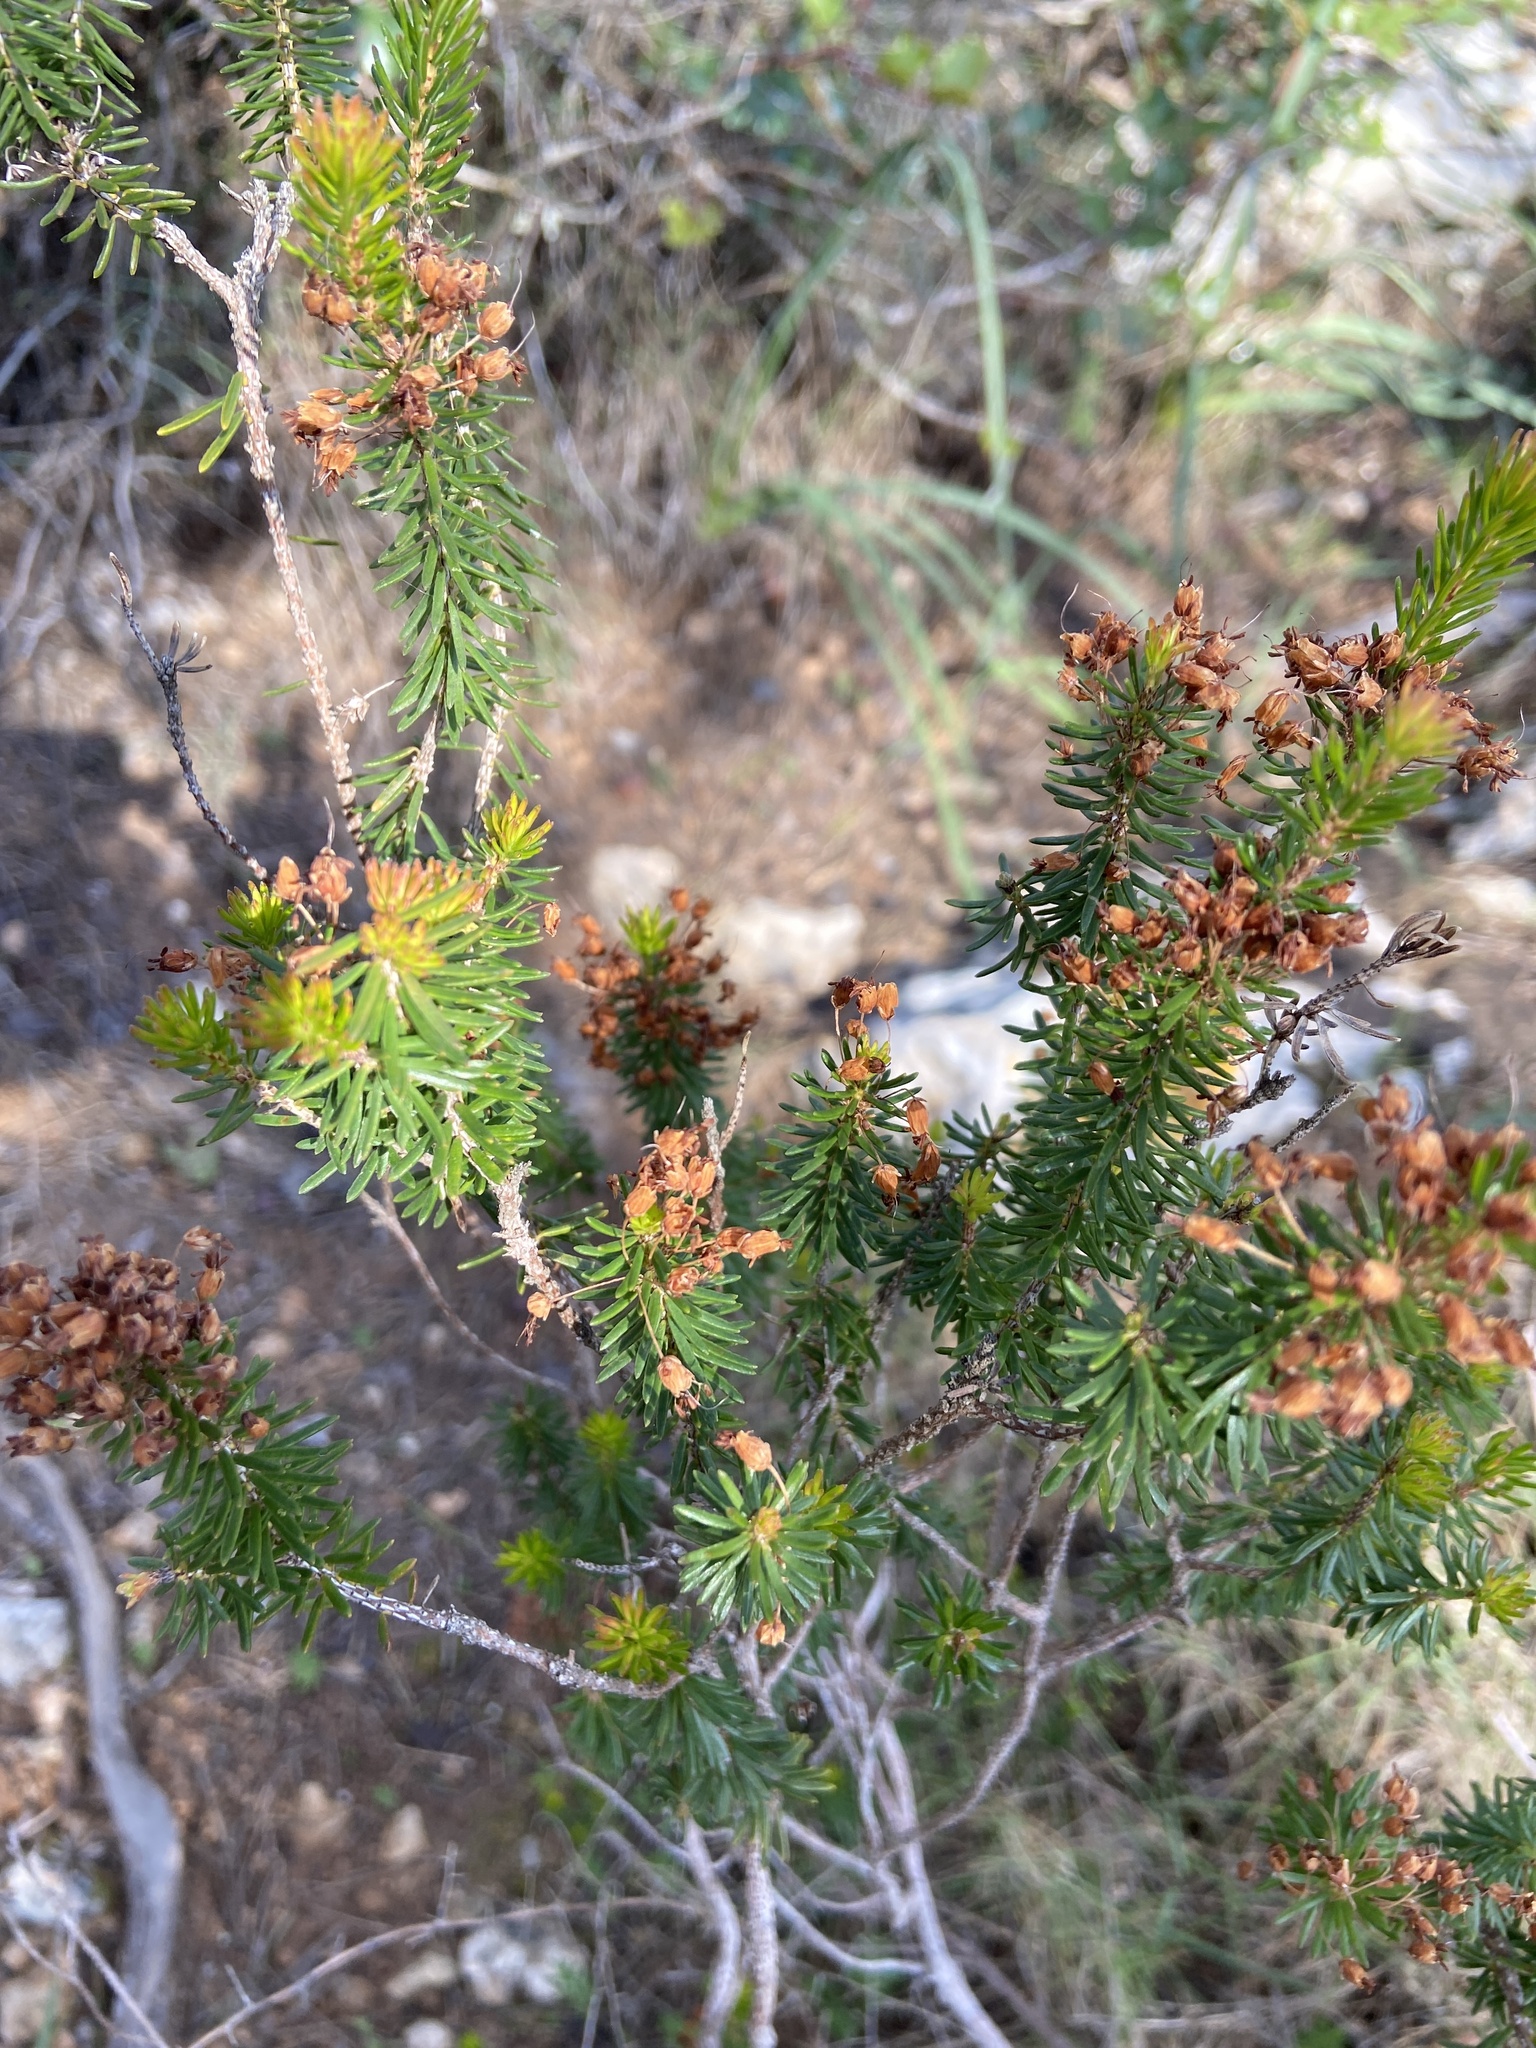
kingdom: Plantae
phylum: Tracheophyta
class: Magnoliopsida
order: Ericales
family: Ericaceae
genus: Erica
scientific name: Erica multiflora
